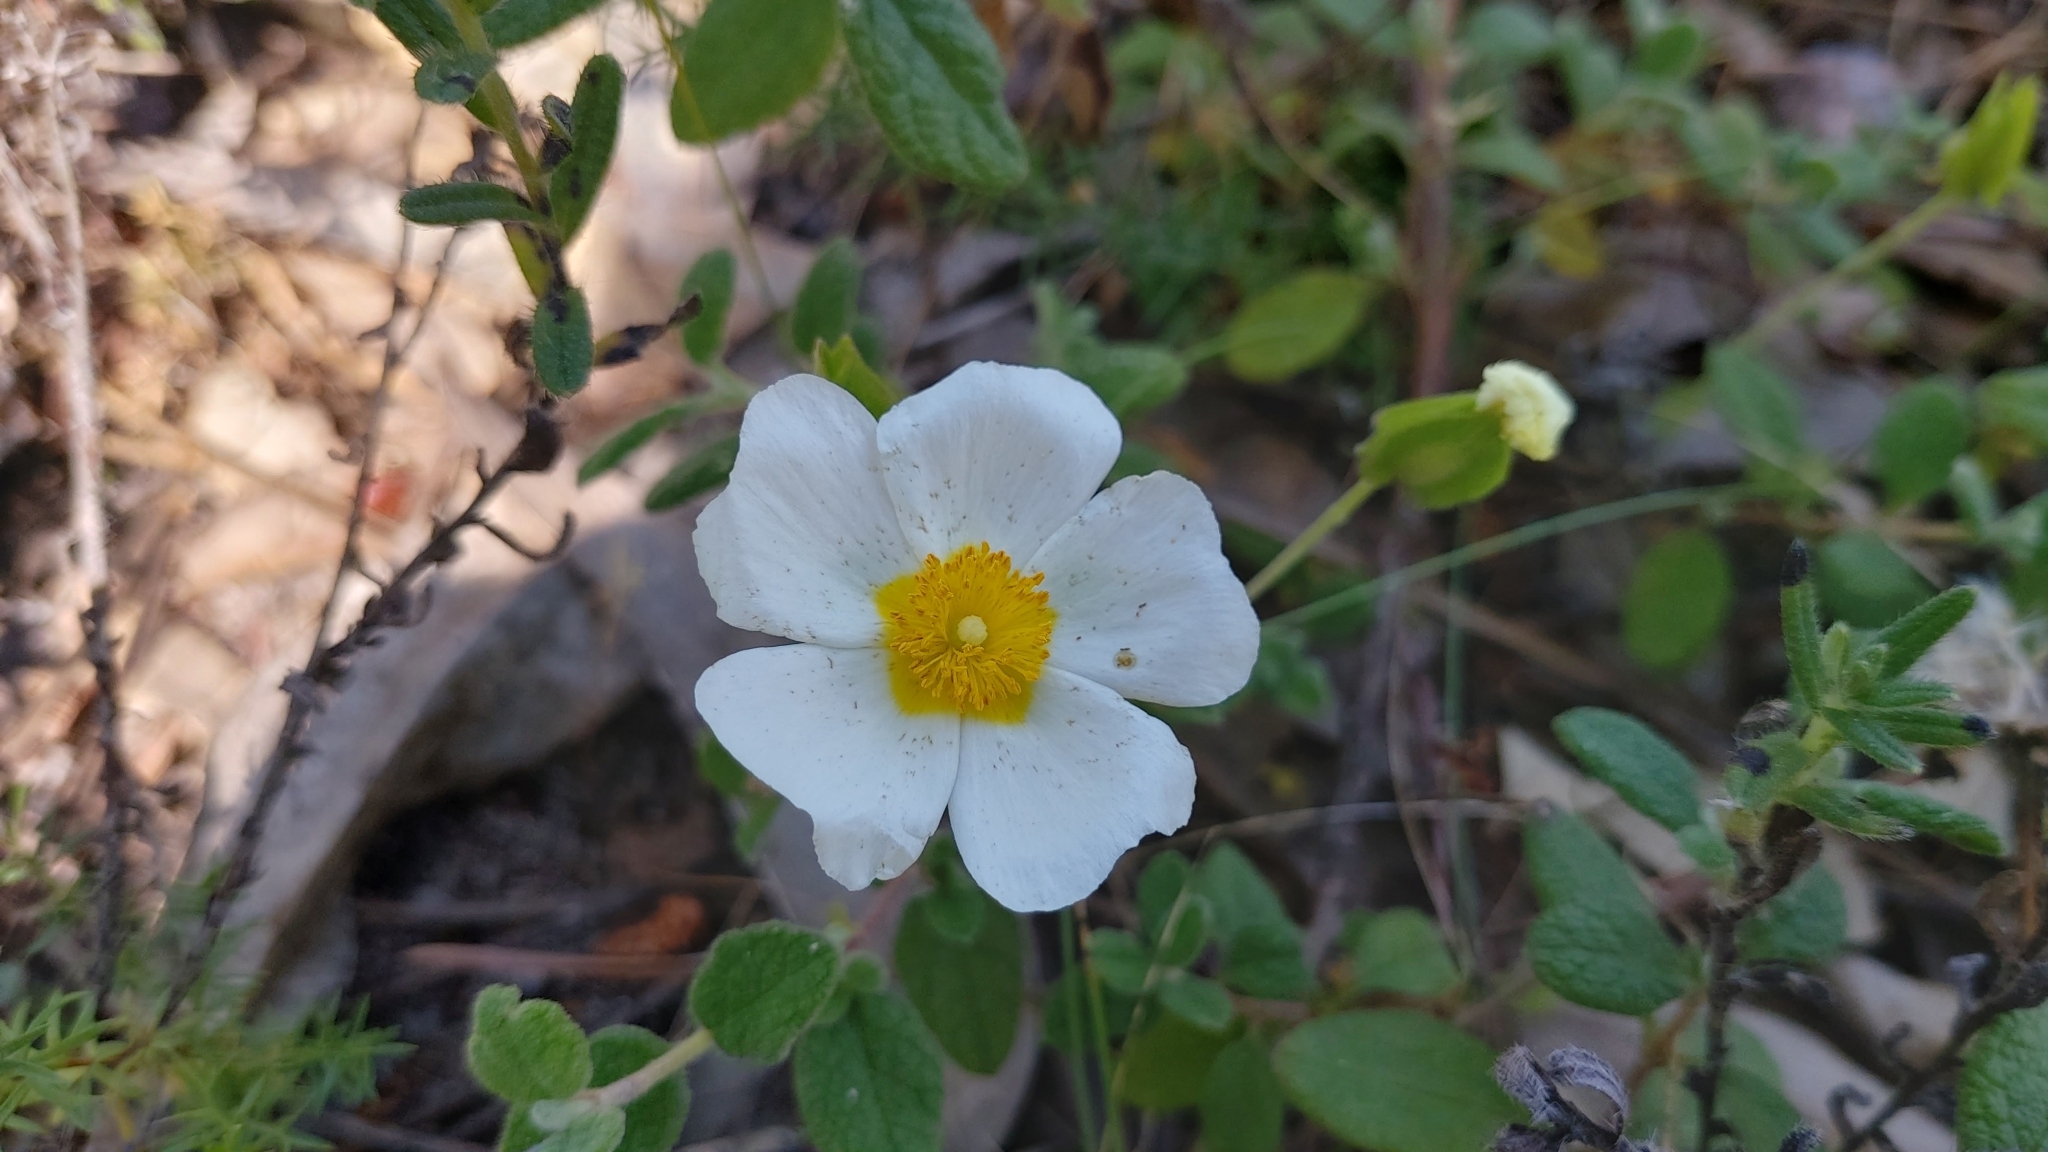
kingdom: Plantae
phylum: Tracheophyta
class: Magnoliopsida
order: Malvales
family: Cistaceae
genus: Cistus
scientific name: Cistus salviifolius
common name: Salvia cistus
